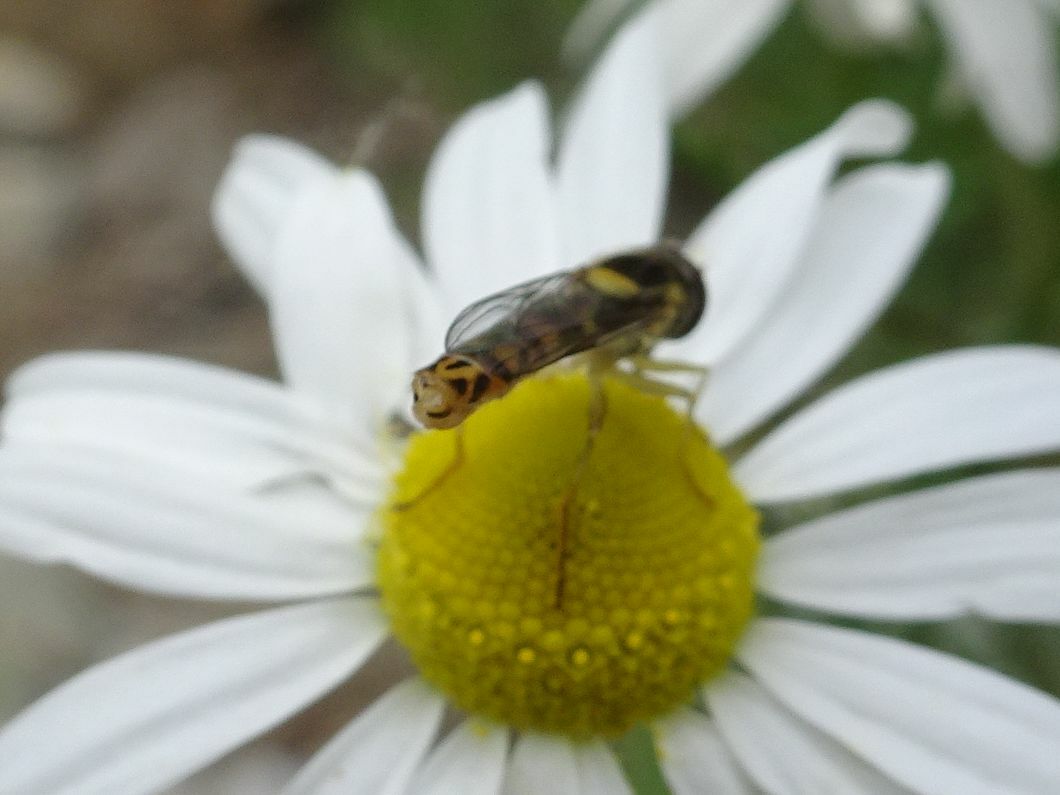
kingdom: Animalia
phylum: Arthropoda
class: Insecta
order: Diptera
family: Syrphidae
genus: Sphaerophoria
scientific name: Sphaerophoria scripta
